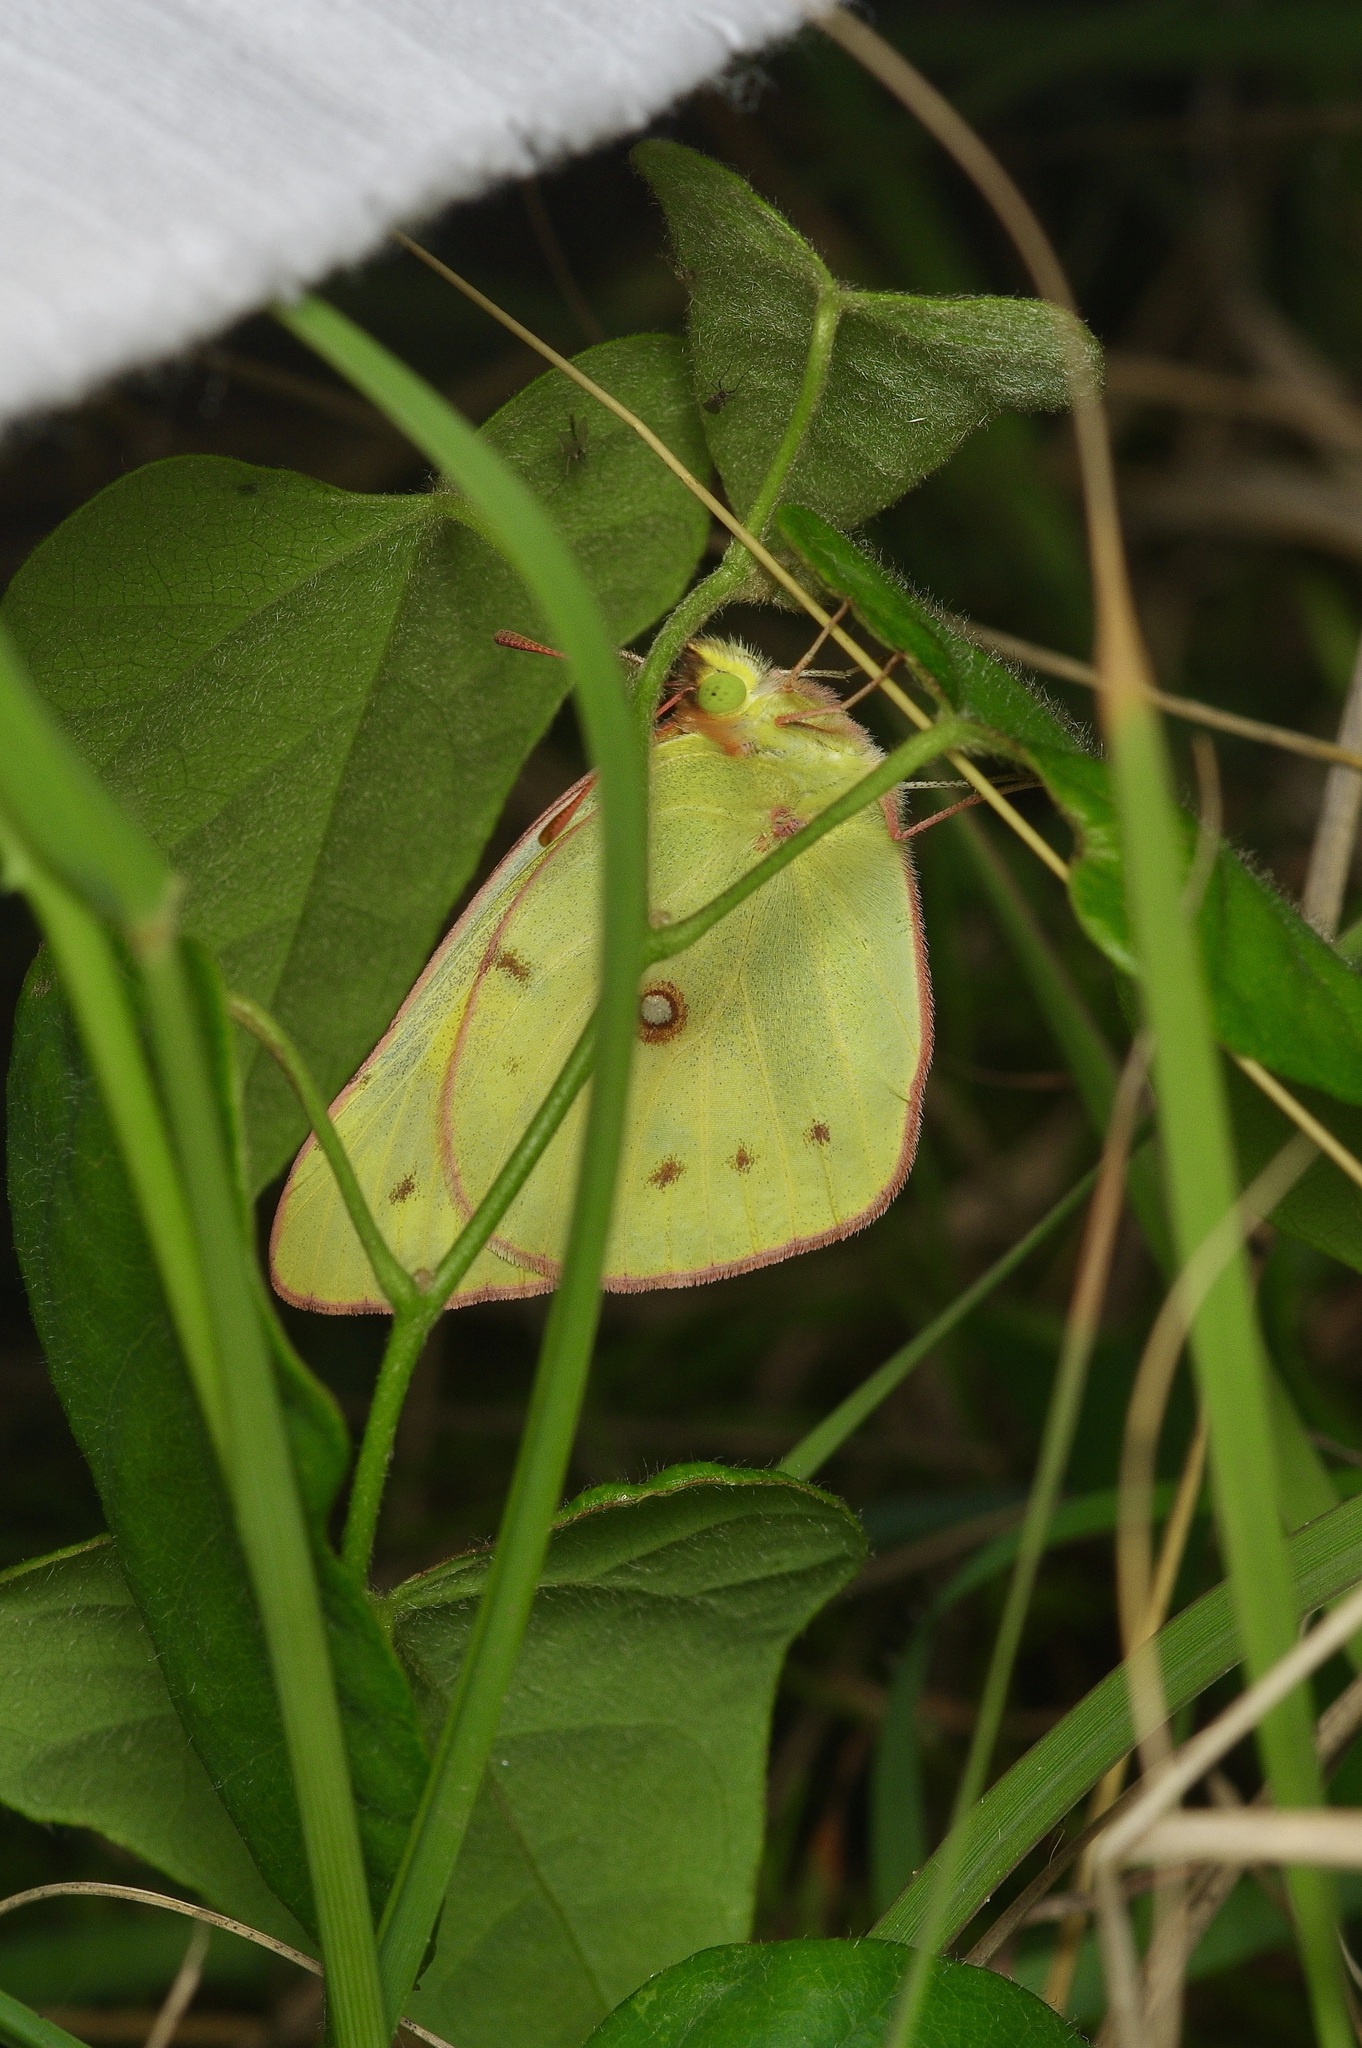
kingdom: Animalia
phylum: Arthropoda
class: Insecta
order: Lepidoptera
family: Pieridae
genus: Colias
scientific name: Colias eurytheme
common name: Alfalfa butterfly
